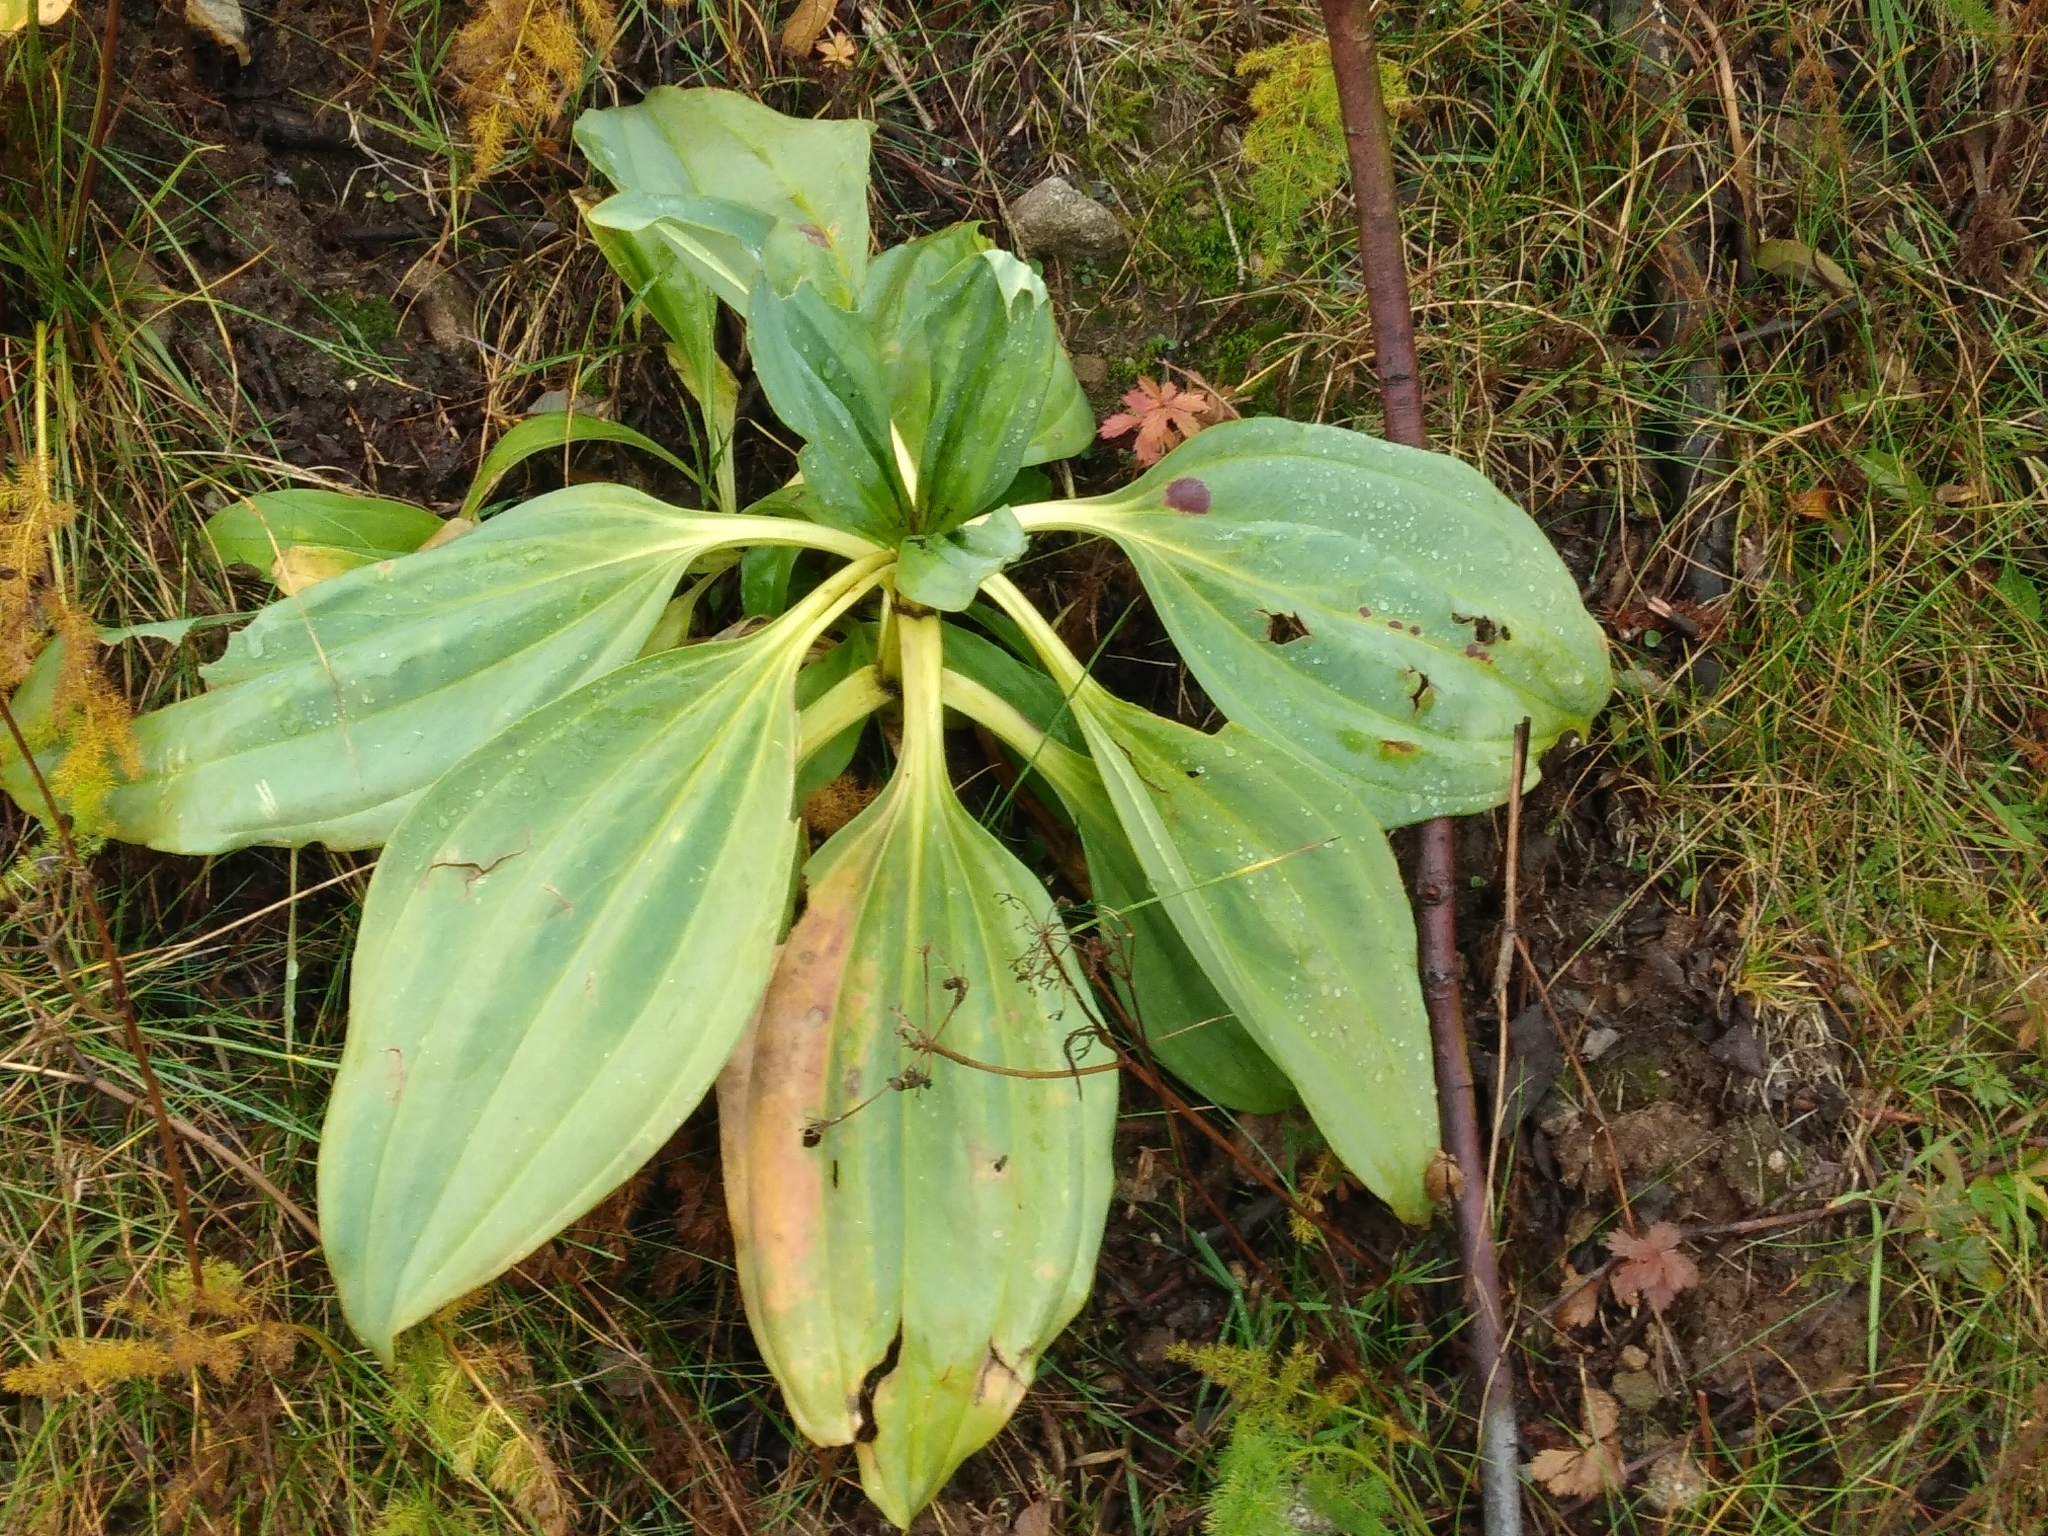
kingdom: Plantae
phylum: Tracheophyta
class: Magnoliopsida
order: Gentianales
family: Gentianaceae
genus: Gentiana
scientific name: Gentiana lutea
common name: Great yellow gentian
